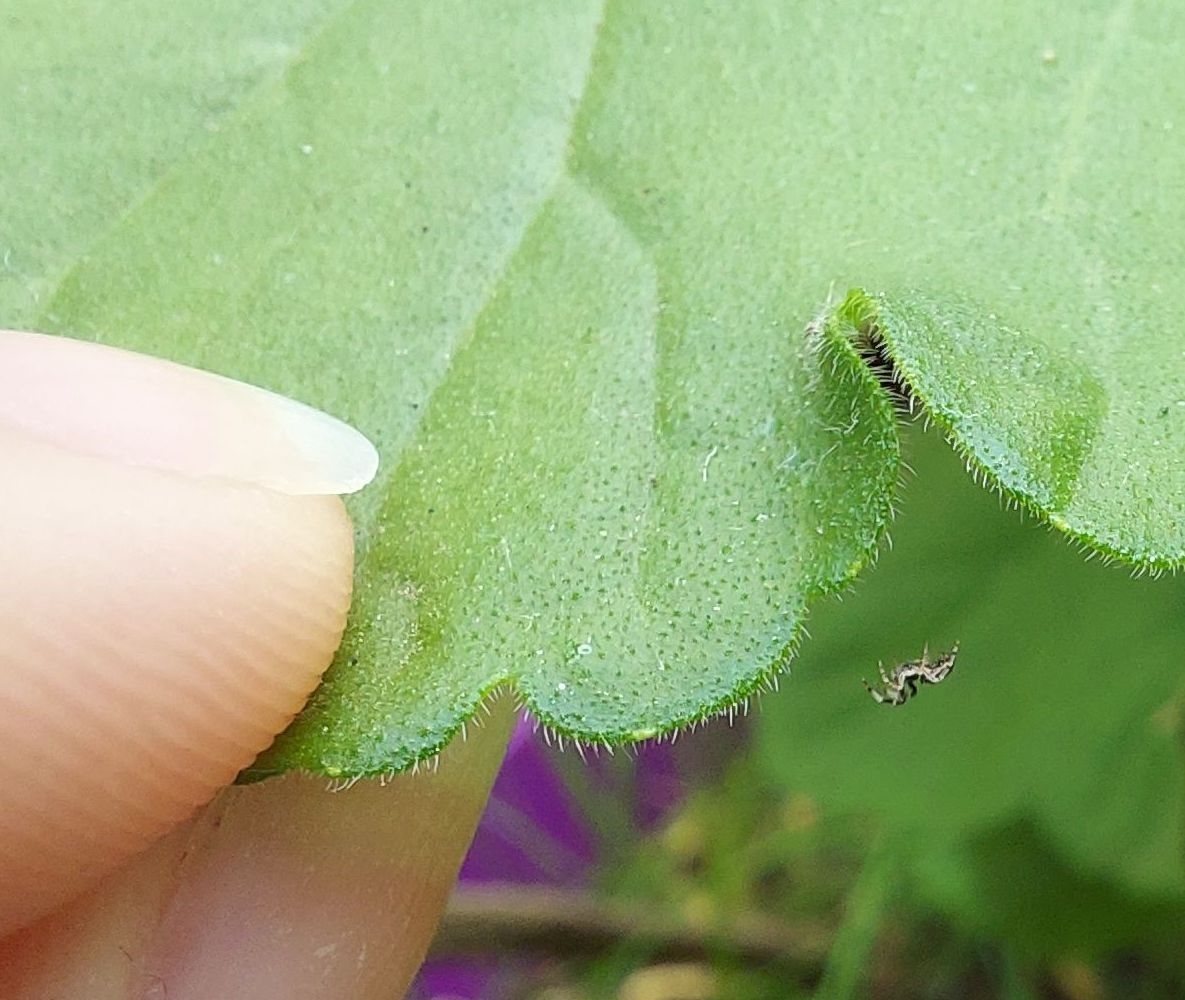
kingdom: Animalia
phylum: Arthropoda
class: Arachnida
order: Araneae
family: Uloboridae
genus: Uloborus
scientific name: Uloborus plumipes
